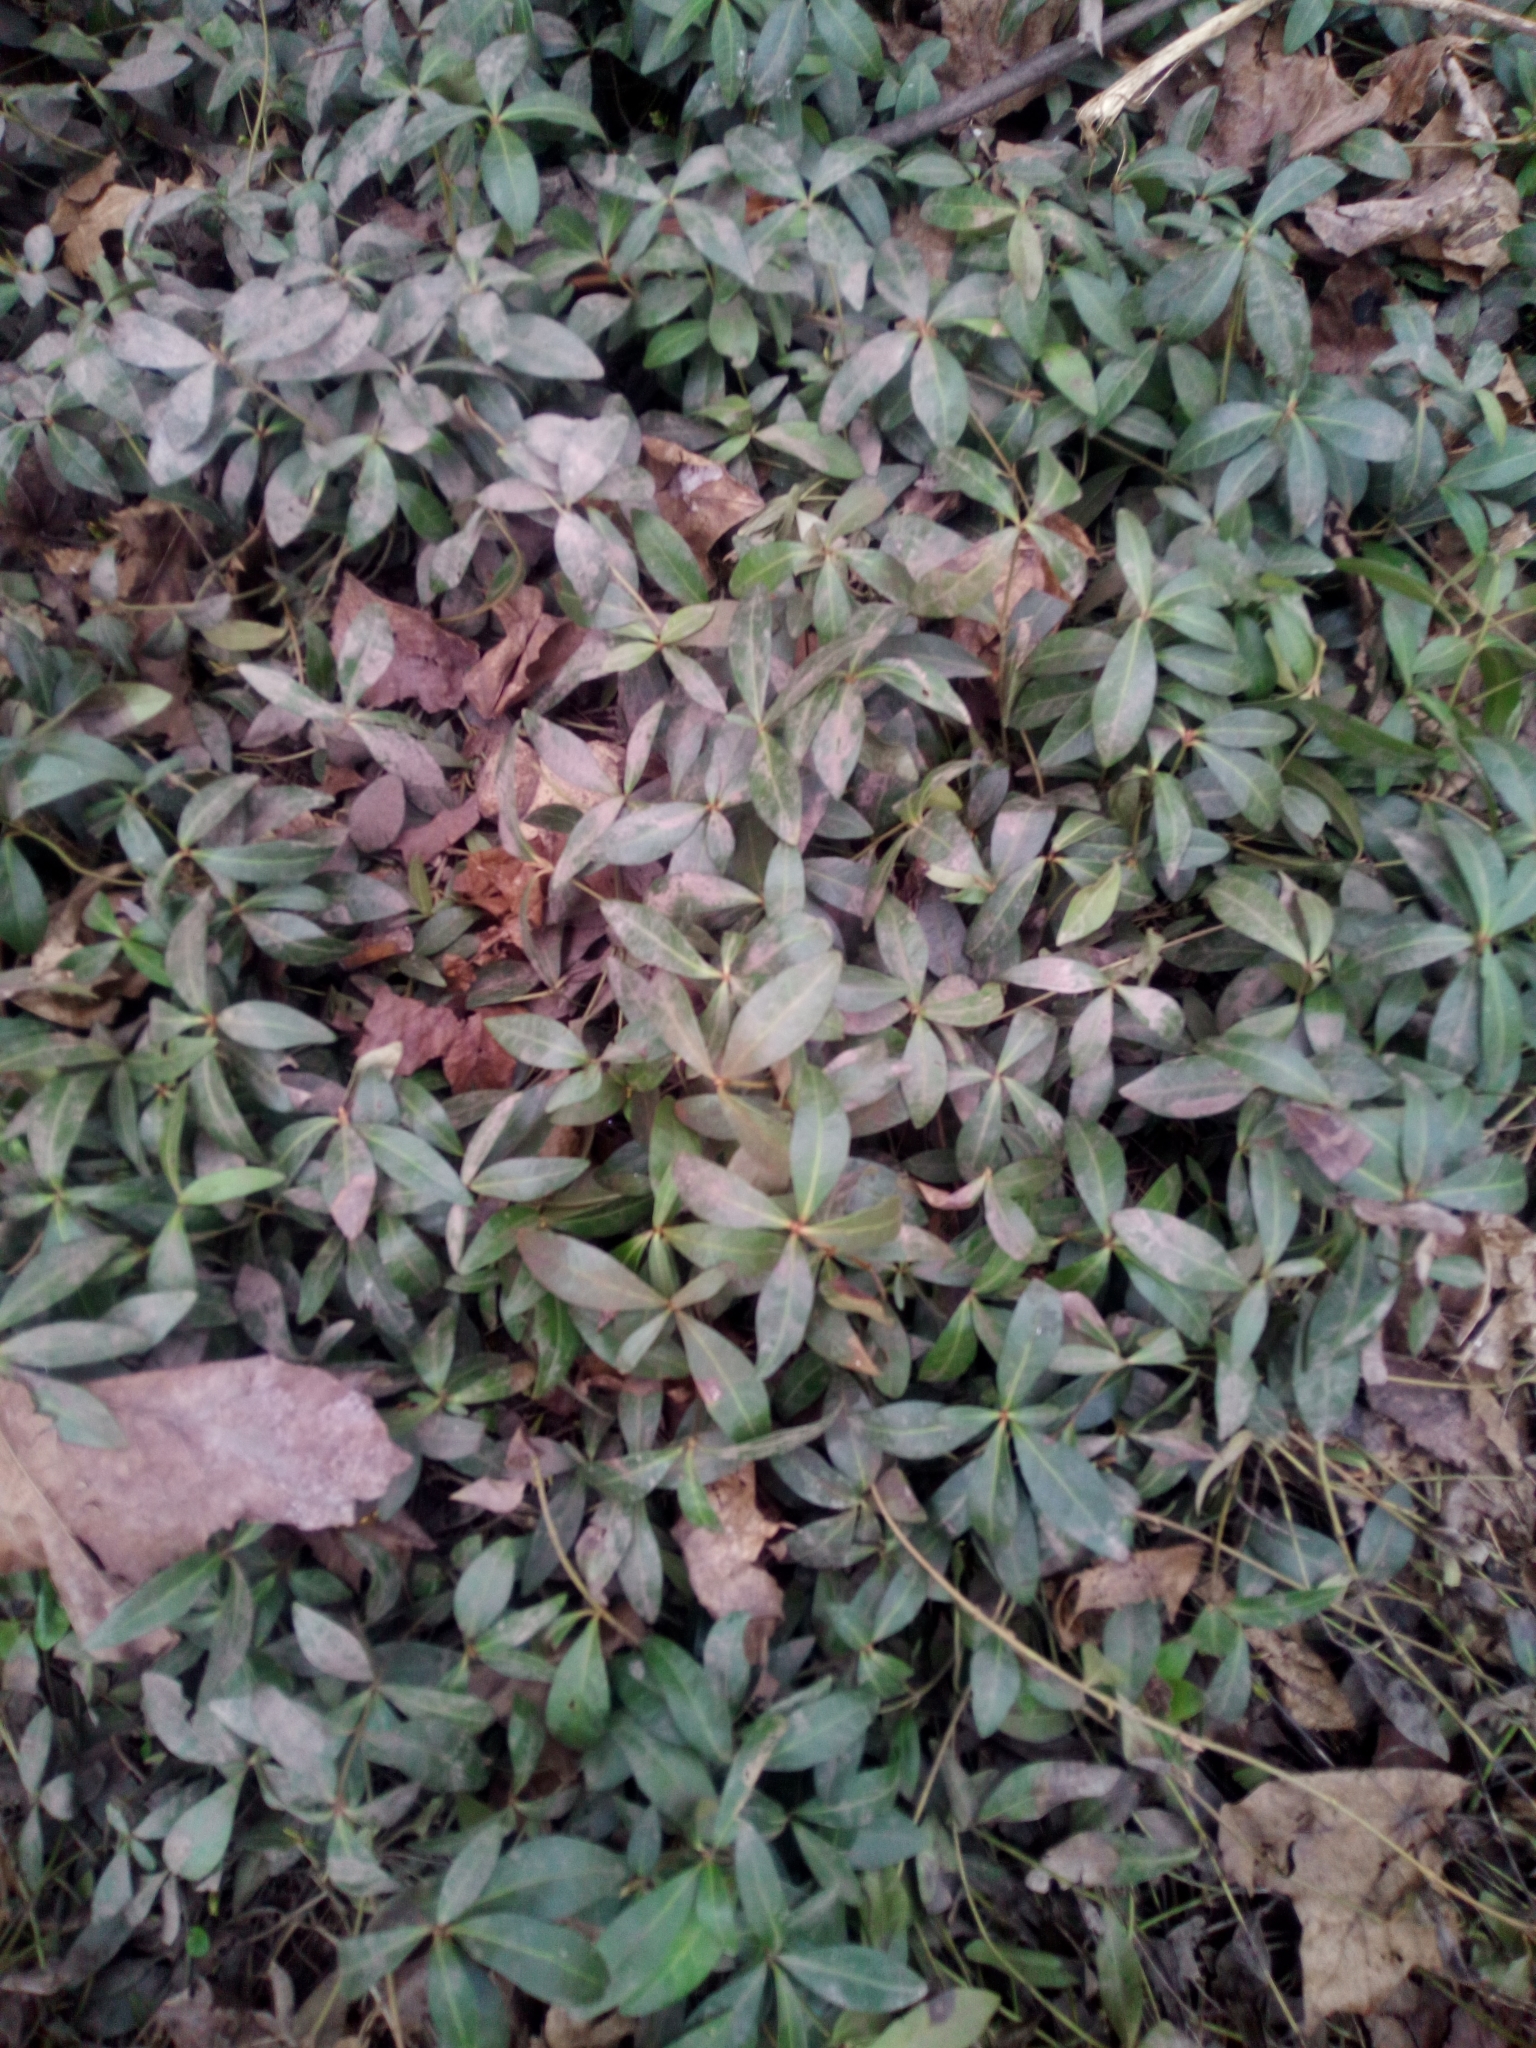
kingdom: Plantae
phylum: Tracheophyta
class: Magnoliopsida
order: Gentianales
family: Apocynaceae
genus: Vinca
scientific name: Vinca minor
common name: Lesser periwinkle
